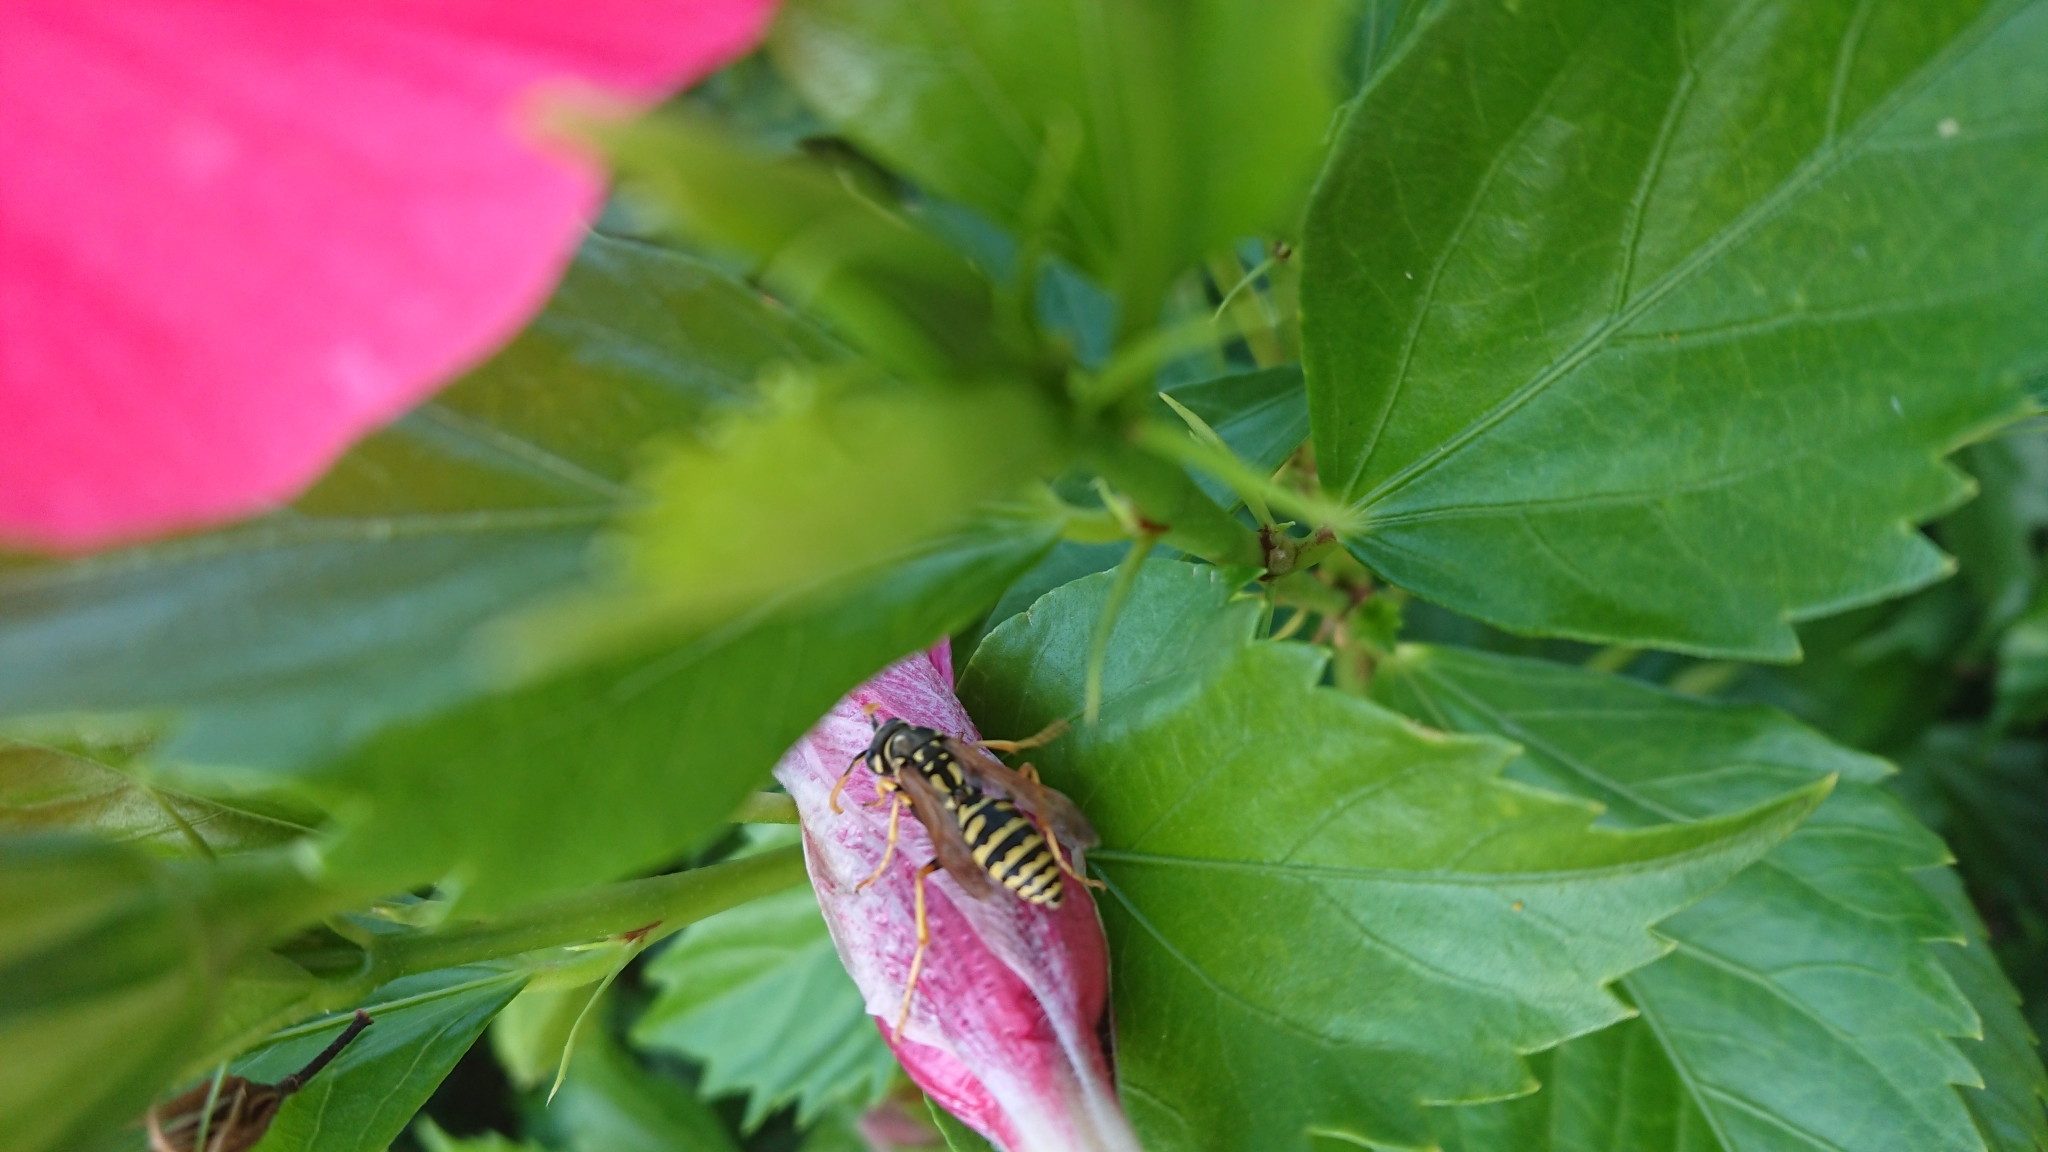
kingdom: Animalia
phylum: Arthropoda
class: Insecta
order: Hymenoptera
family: Eumenidae
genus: Polistes
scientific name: Polistes dominula
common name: Paper wasp
